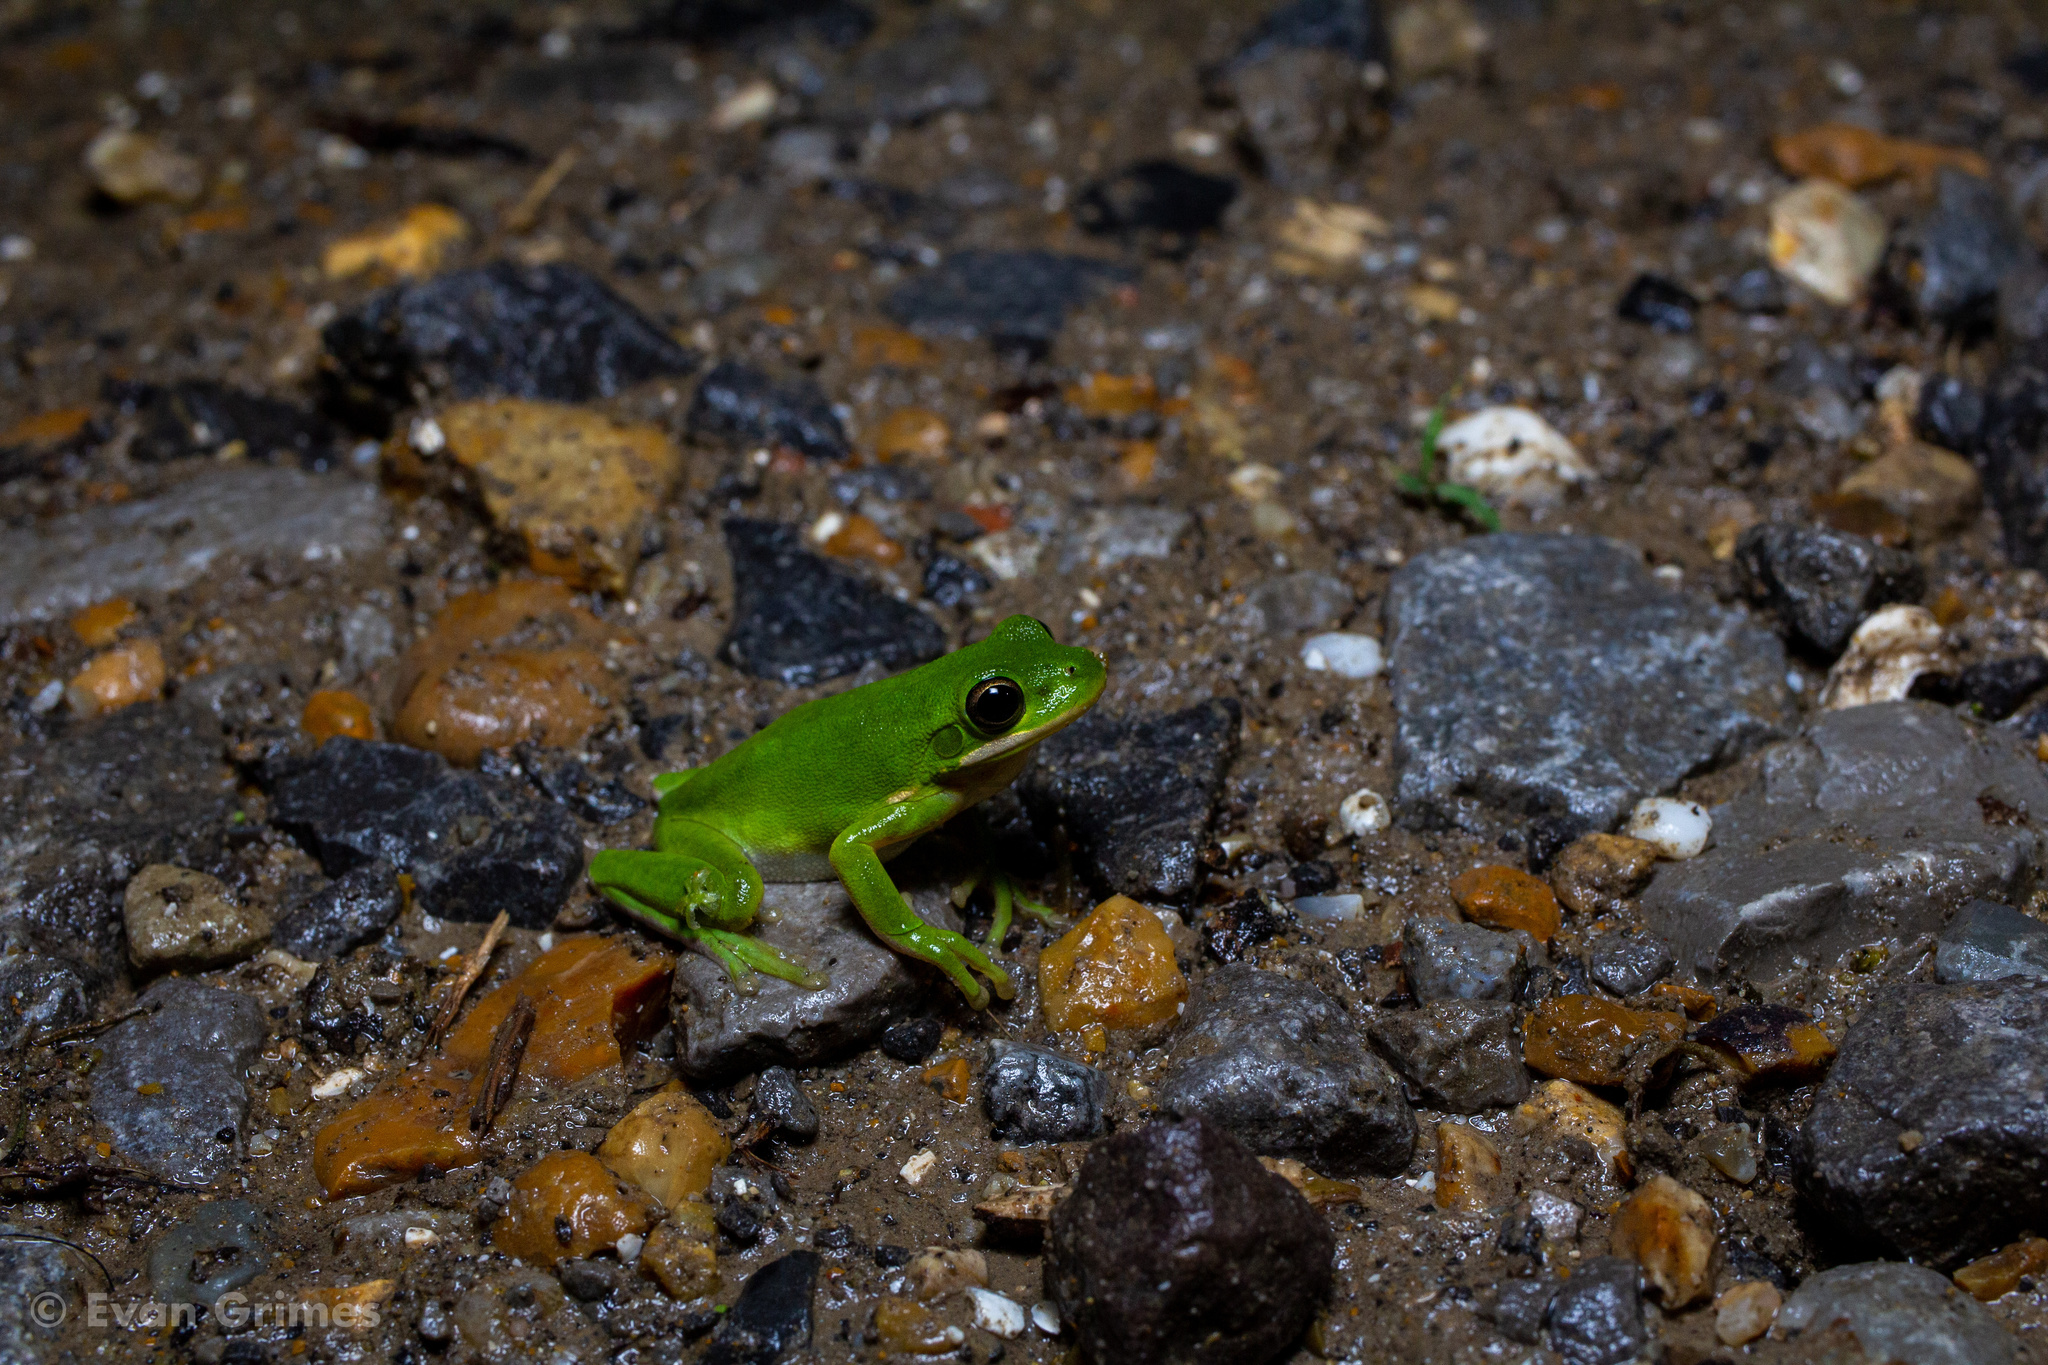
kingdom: Animalia
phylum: Chordata
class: Amphibia
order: Anura
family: Hylidae
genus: Dryophytes
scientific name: Dryophytes cinereus
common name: Green treefrog
